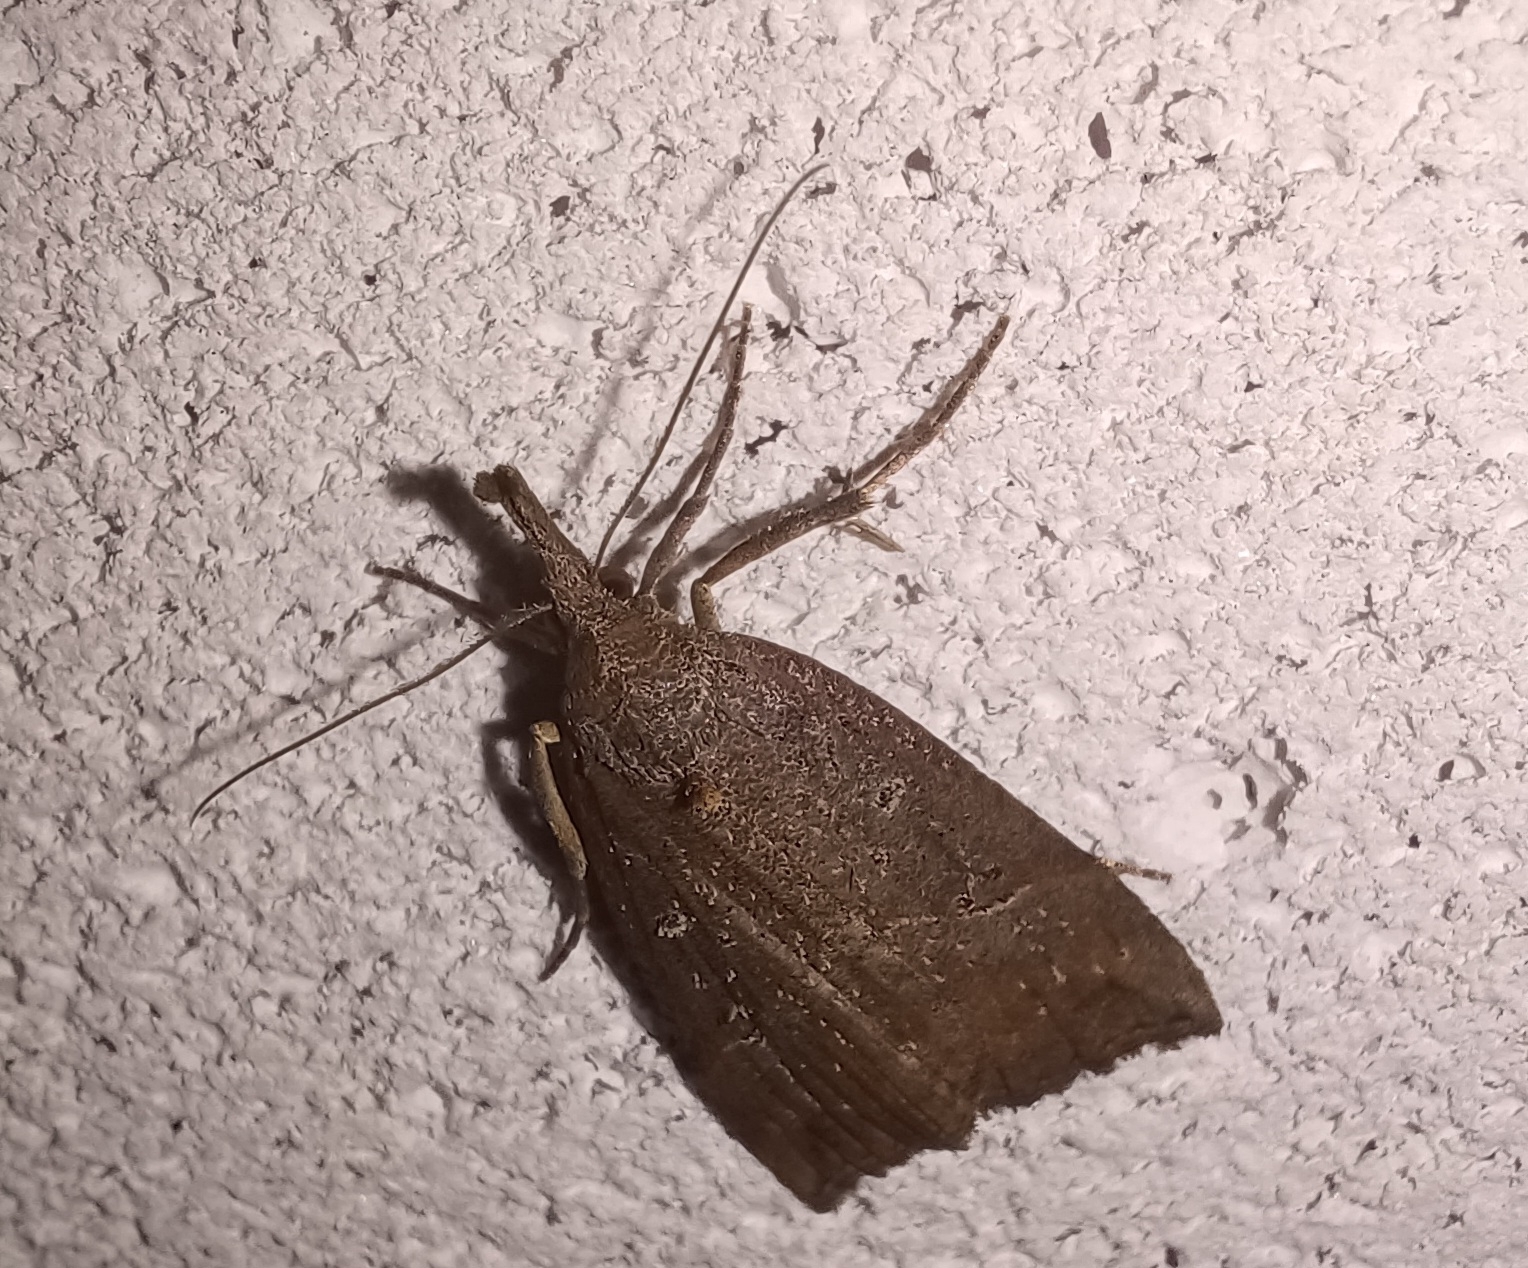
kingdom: Animalia
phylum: Arthropoda
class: Insecta
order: Lepidoptera
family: Erebidae
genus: Hypena
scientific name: Hypena rostralis
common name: Buttoned snout
